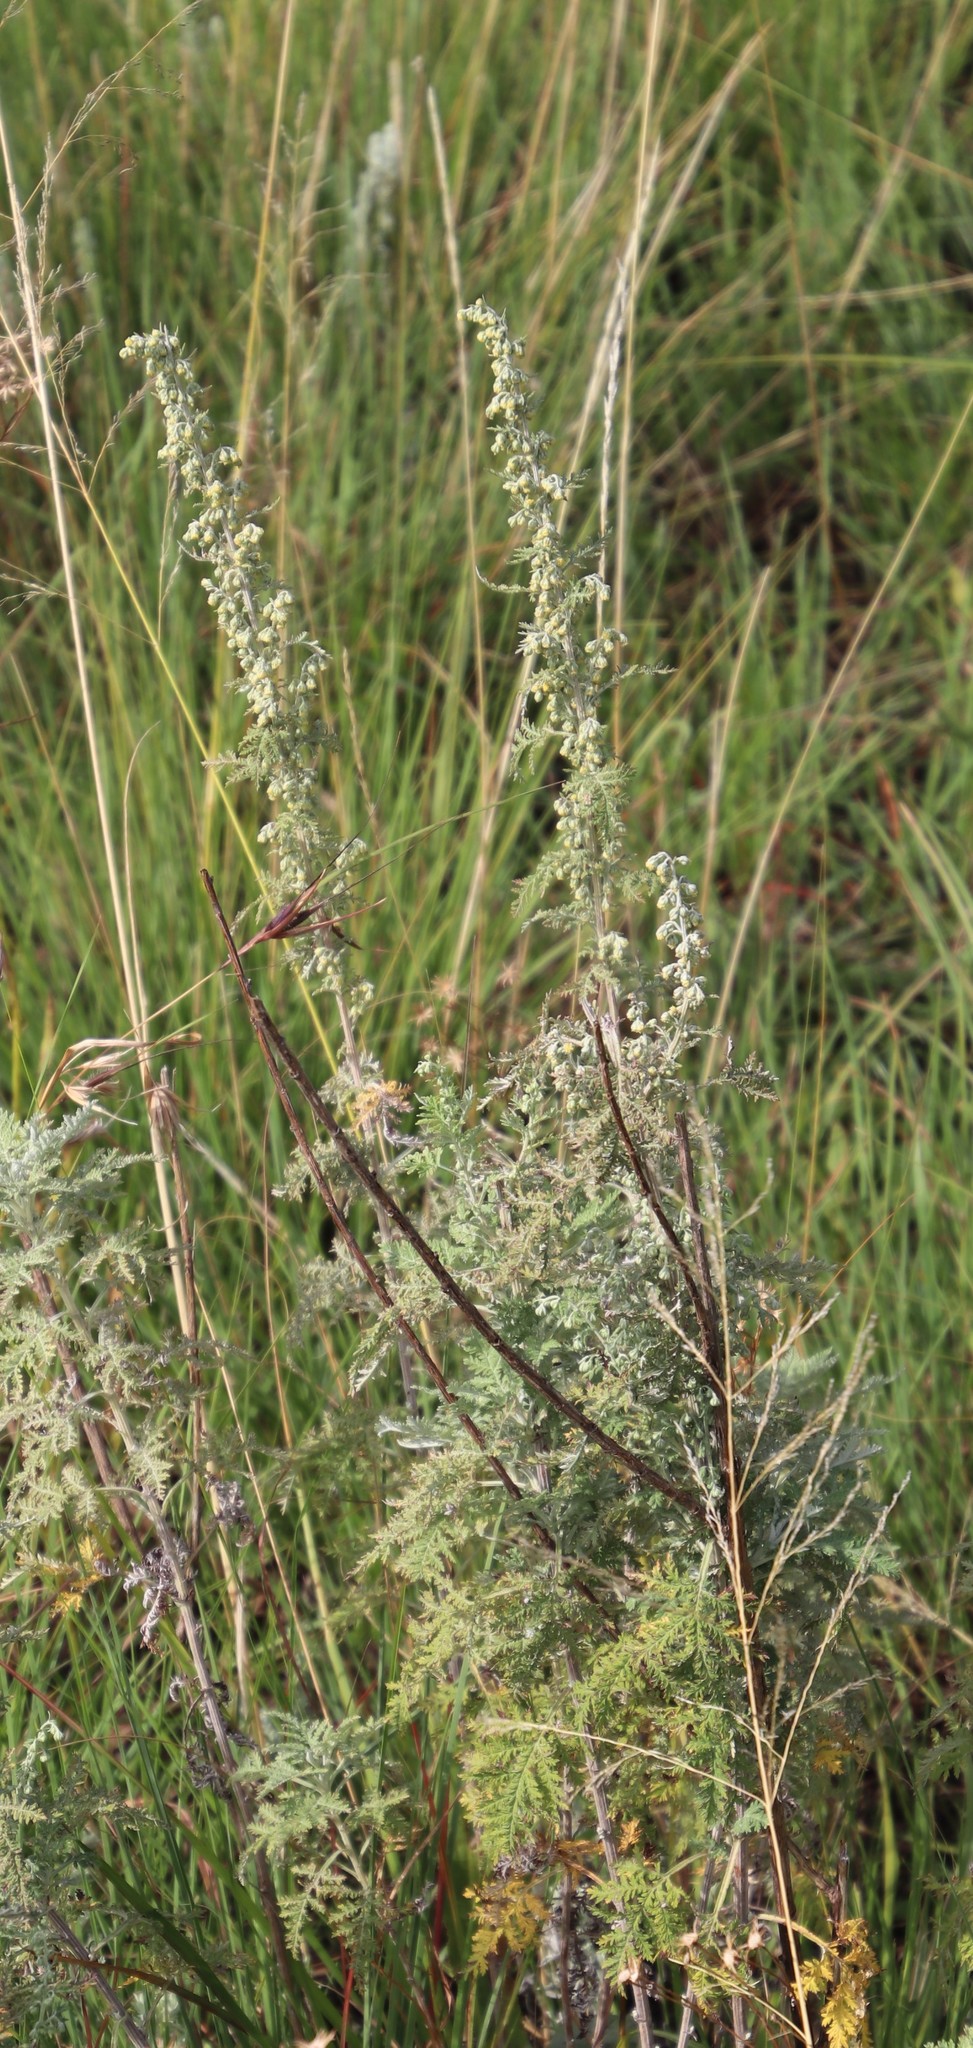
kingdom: Plantae
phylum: Tracheophyta
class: Magnoliopsida
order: Asterales
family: Asteraceae
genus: Artemisia
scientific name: Artemisia afra
